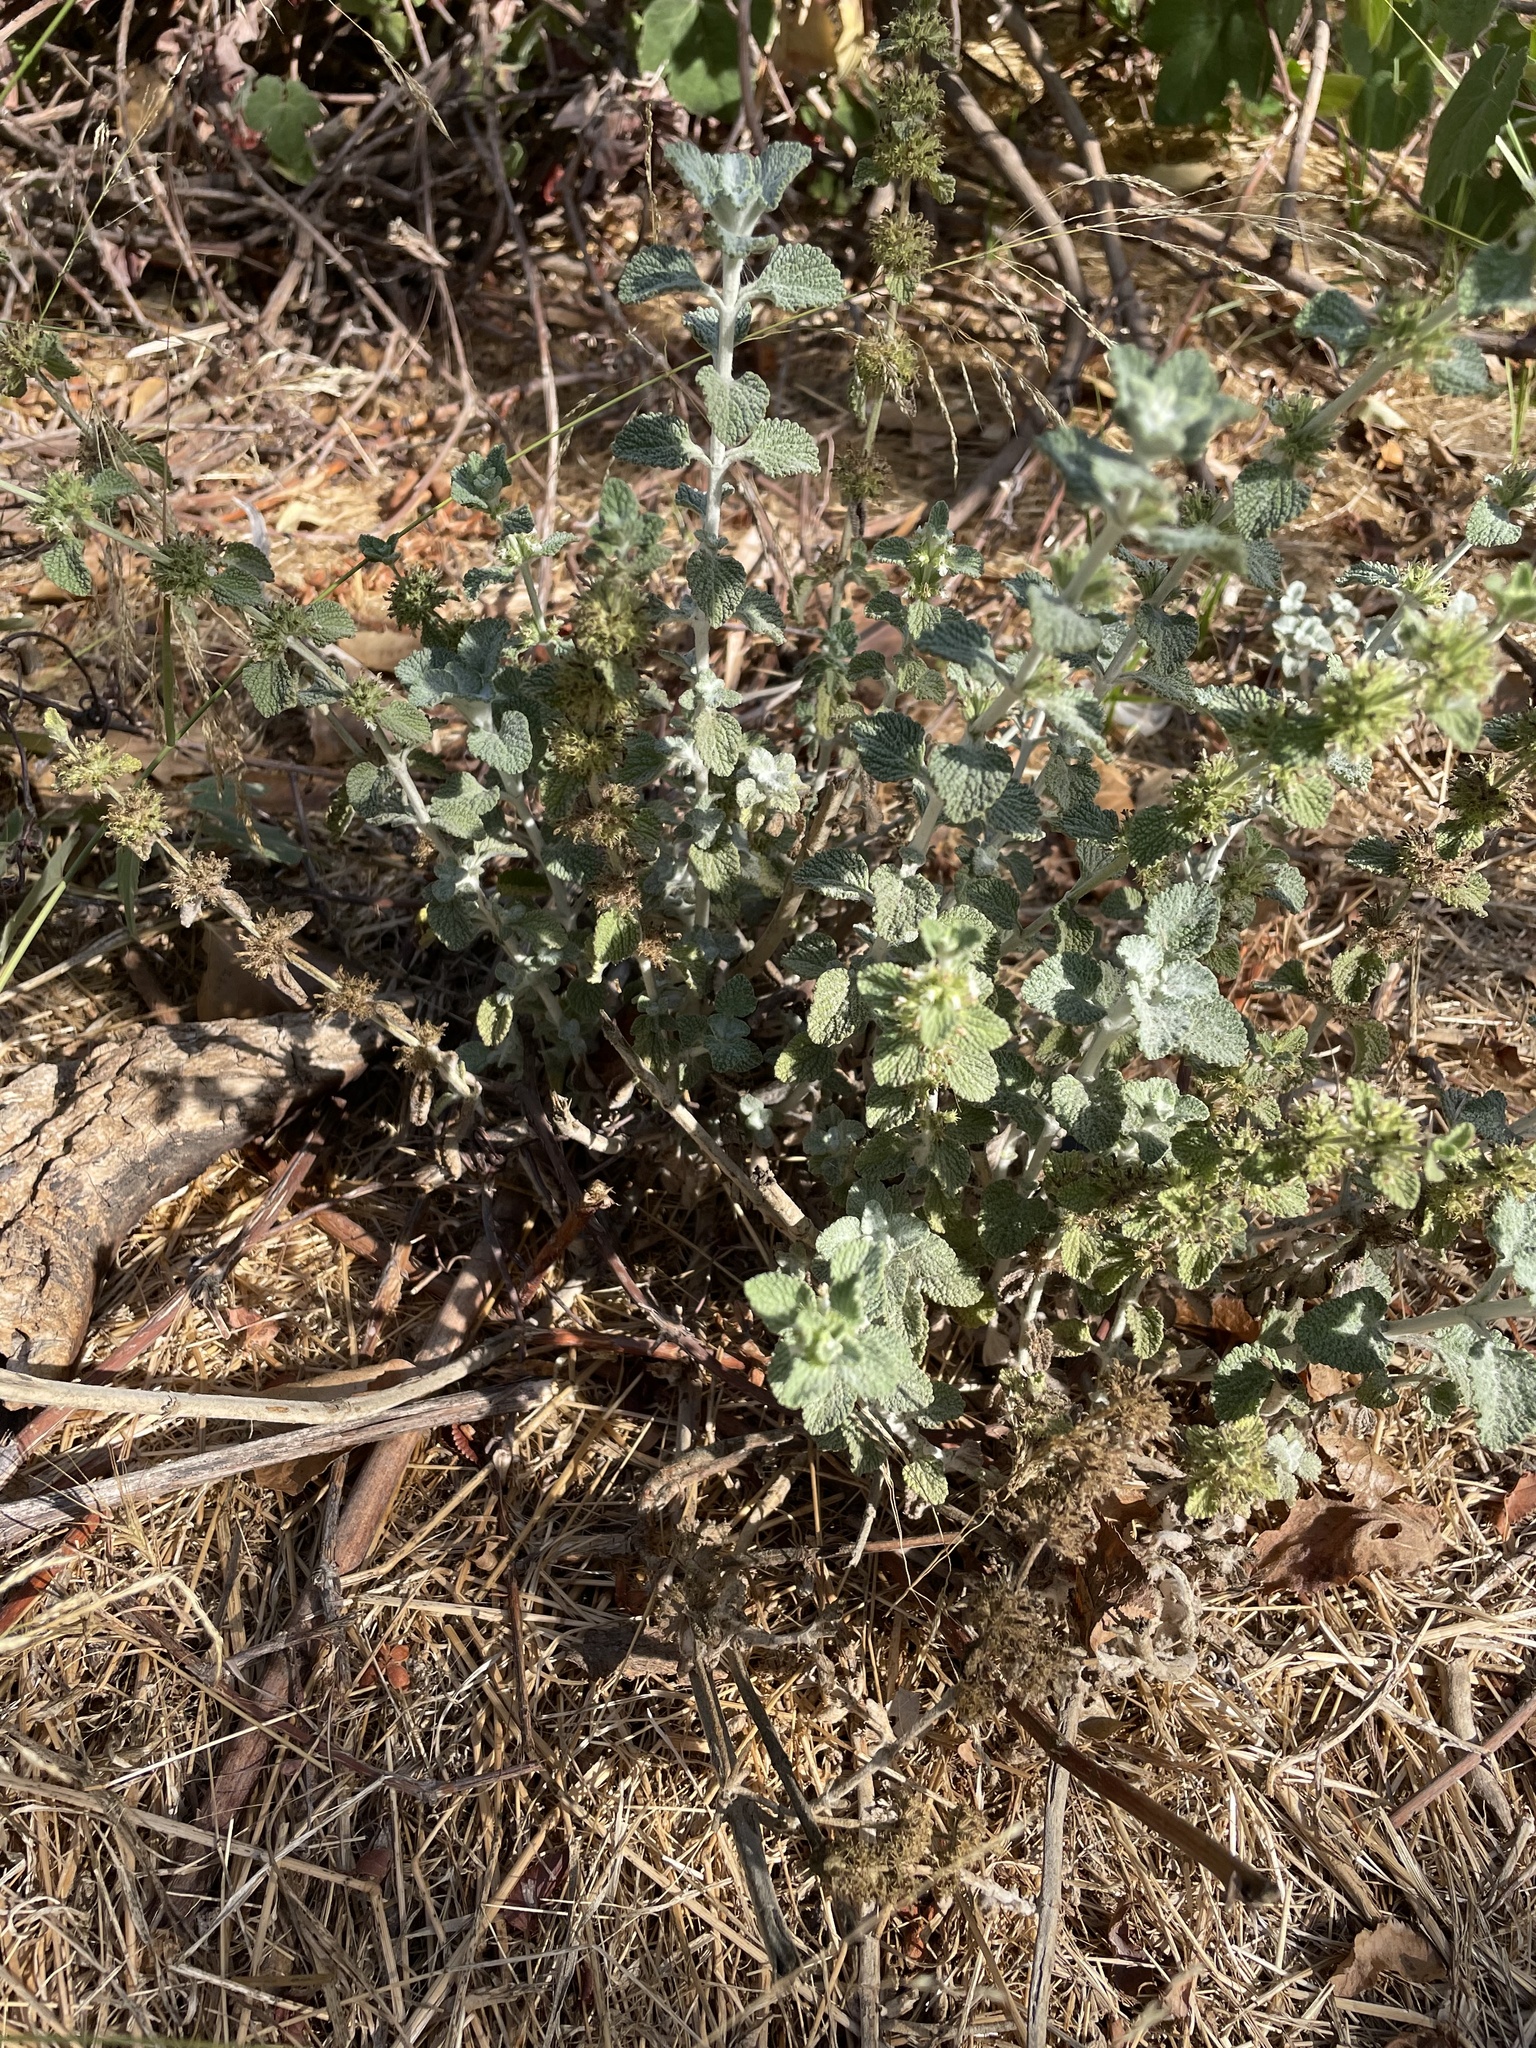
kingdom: Plantae
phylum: Tracheophyta
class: Magnoliopsida
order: Lamiales
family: Lamiaceae
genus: Marrubium
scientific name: Marrubium vulgare
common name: Horehound
